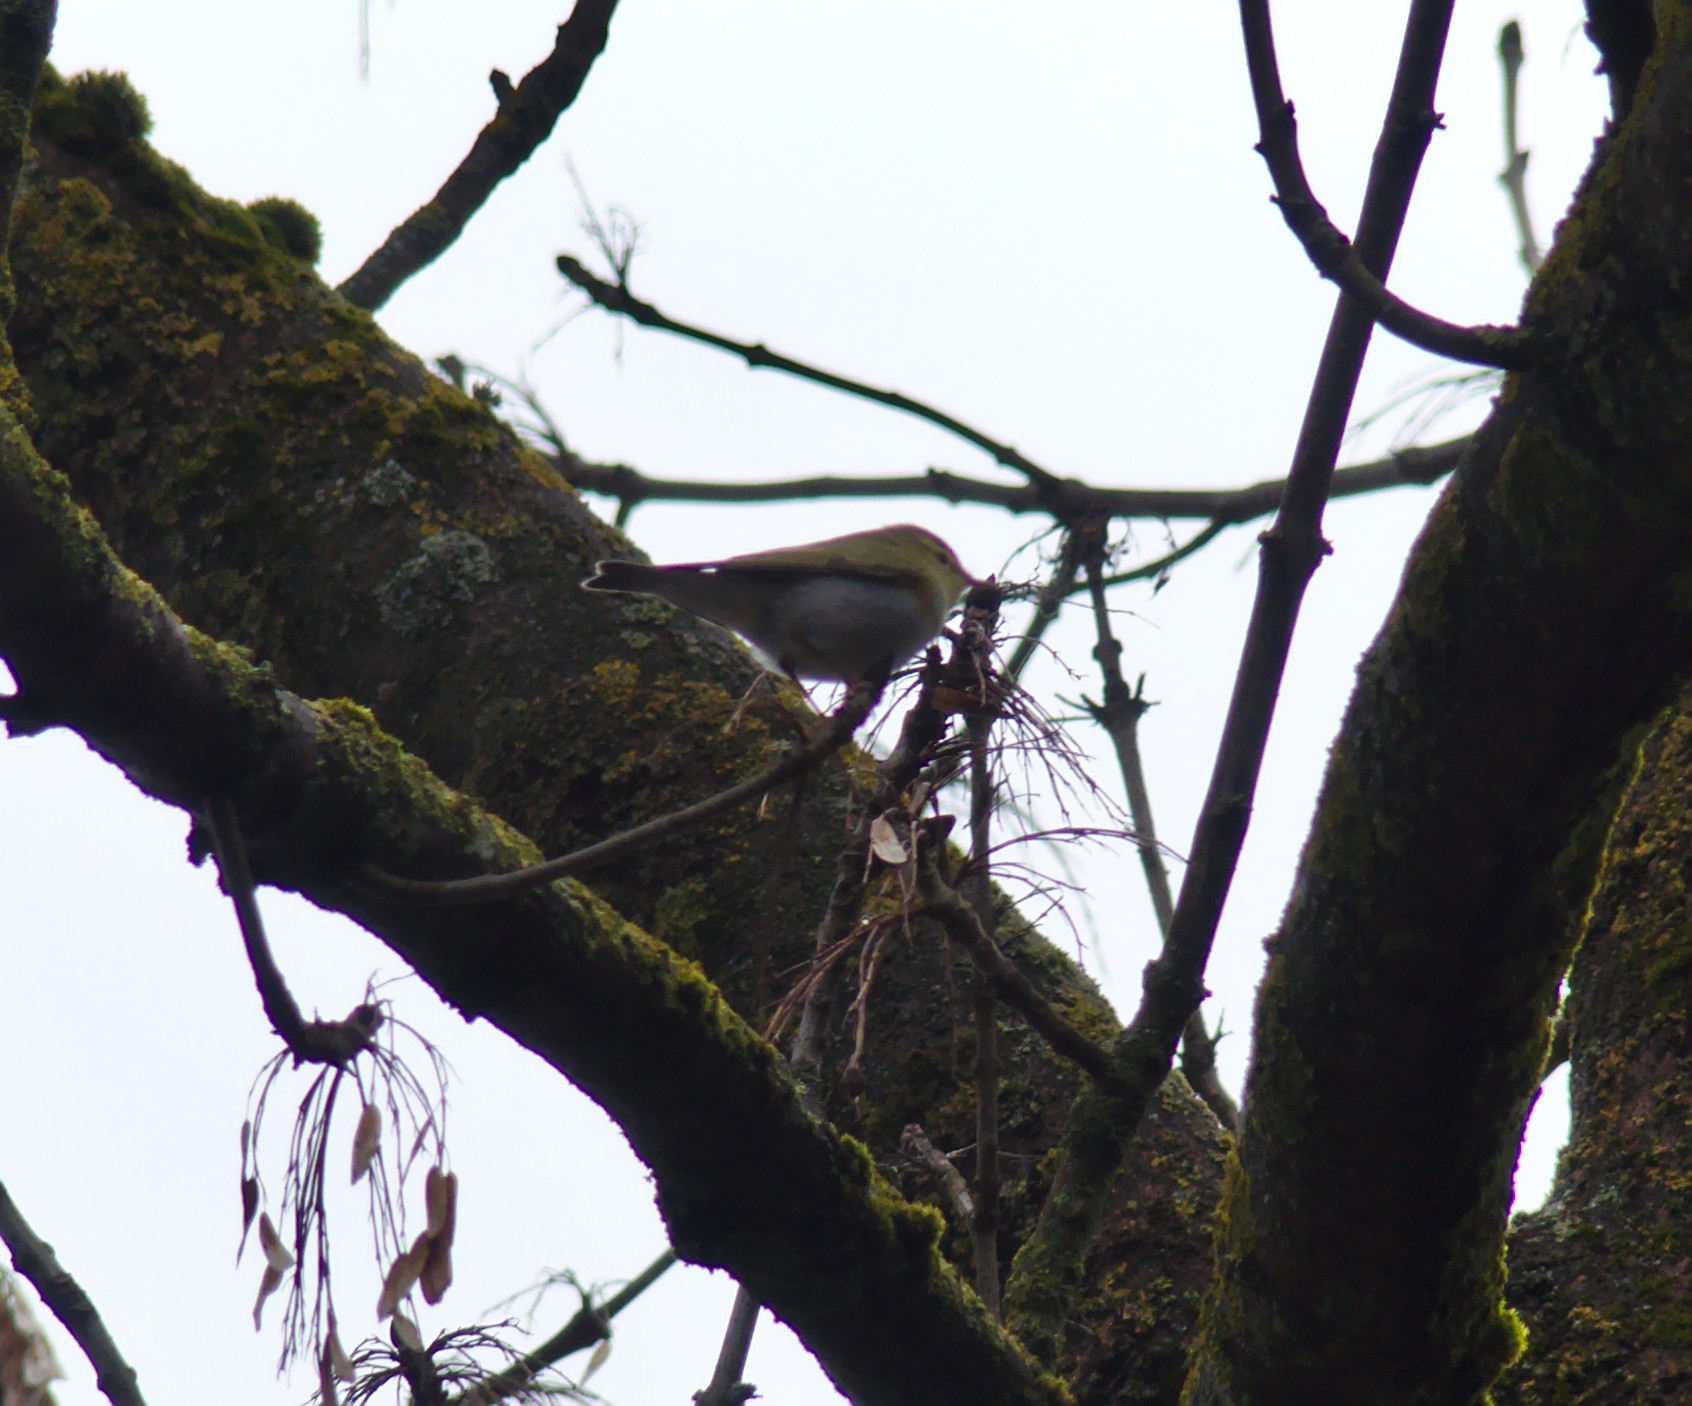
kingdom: Animalia
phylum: Chordata
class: Aves
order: Passeriformes
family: Phylloscopidae
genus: Phylloscopus
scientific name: Phylloscopus sibillatrix
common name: Wood warbler
